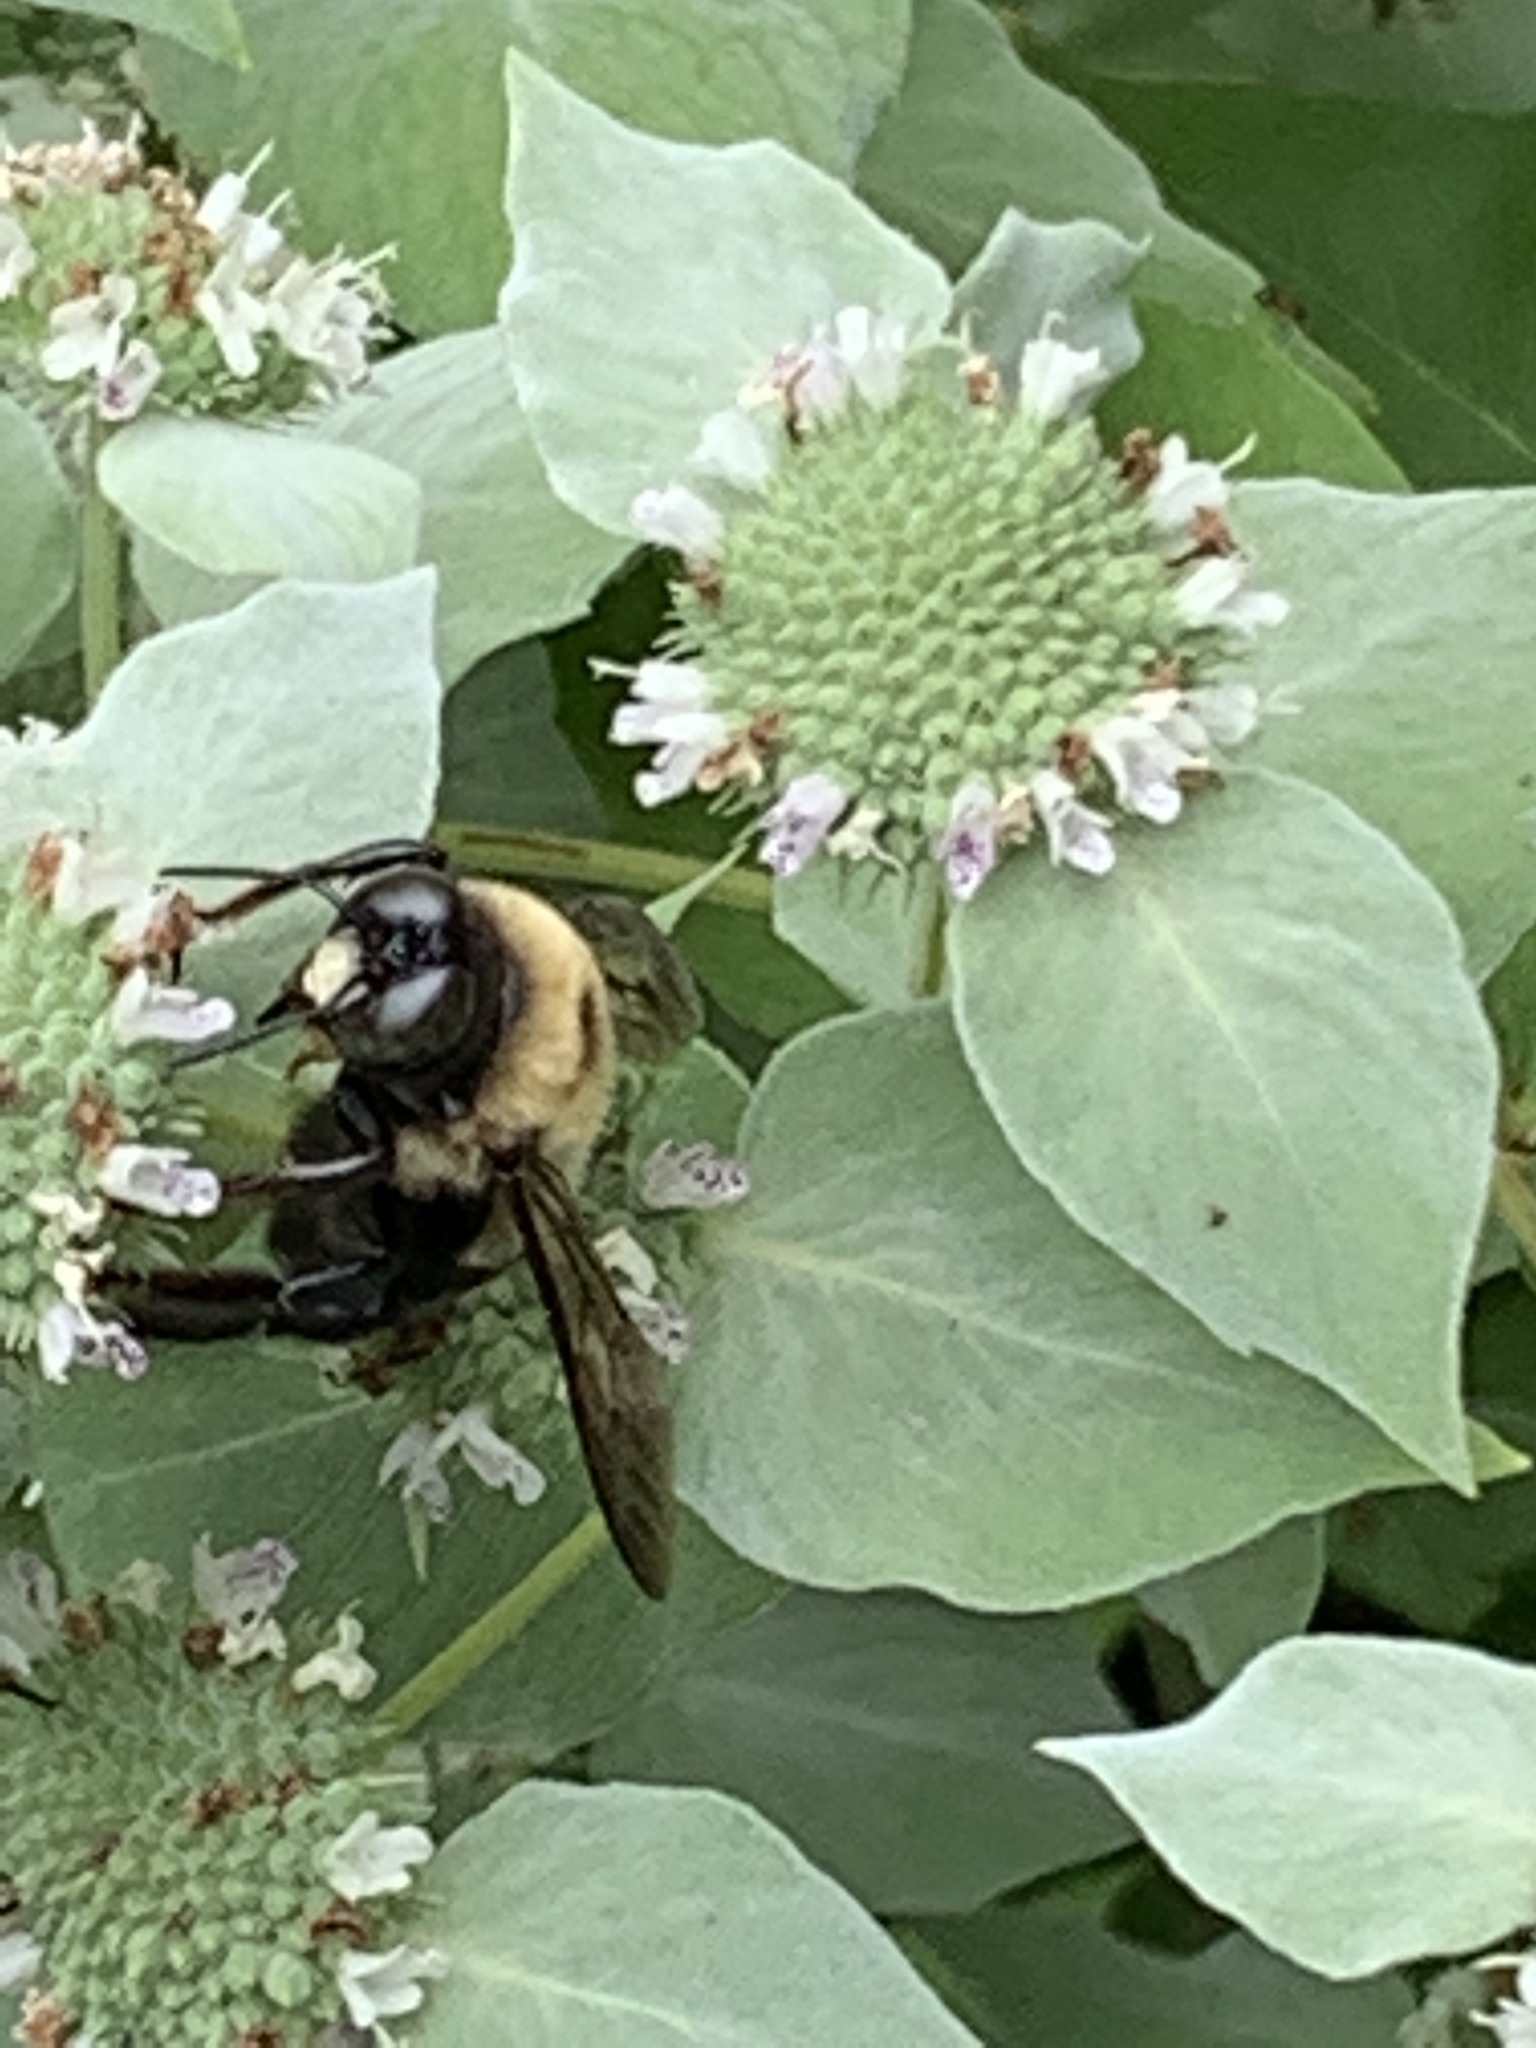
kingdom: Animalia
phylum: Arthropoda
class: Insecta
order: Hymenoptera
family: Apidae
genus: Xylocopa
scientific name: Xylocopa virginica
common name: Carpenter bee
